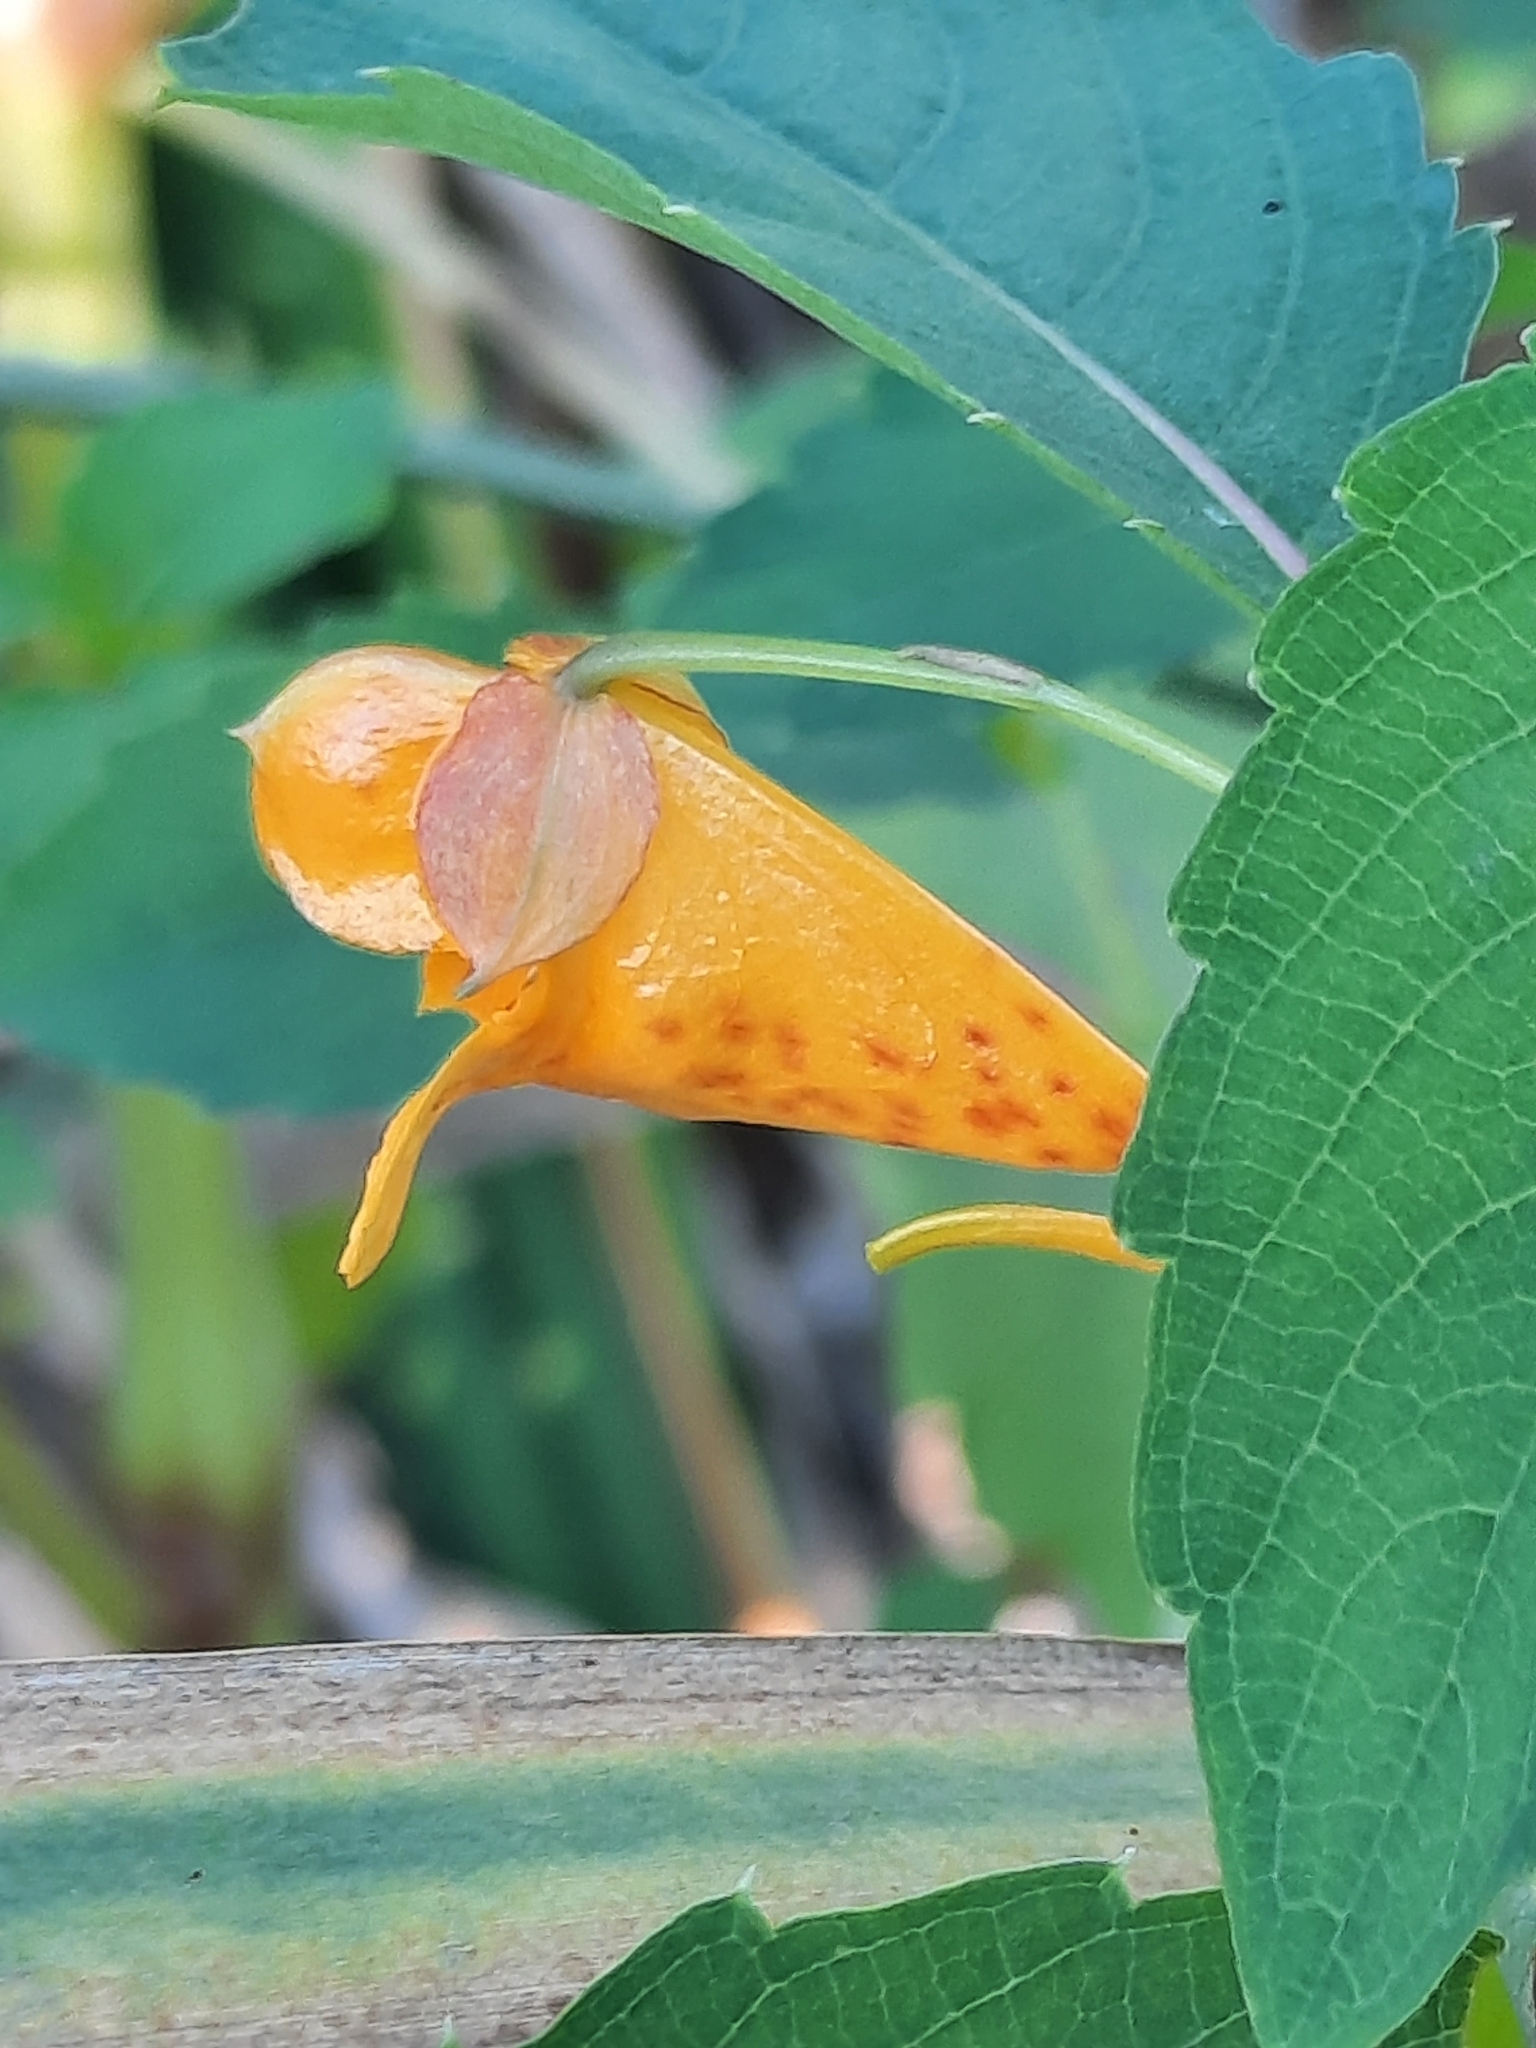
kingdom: Plantae
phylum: Tracheophyta
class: Magnoliopsida
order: Ericales
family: Balsaminaceae
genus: Impatiens
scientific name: Impatiens capensis
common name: Orange balsam
